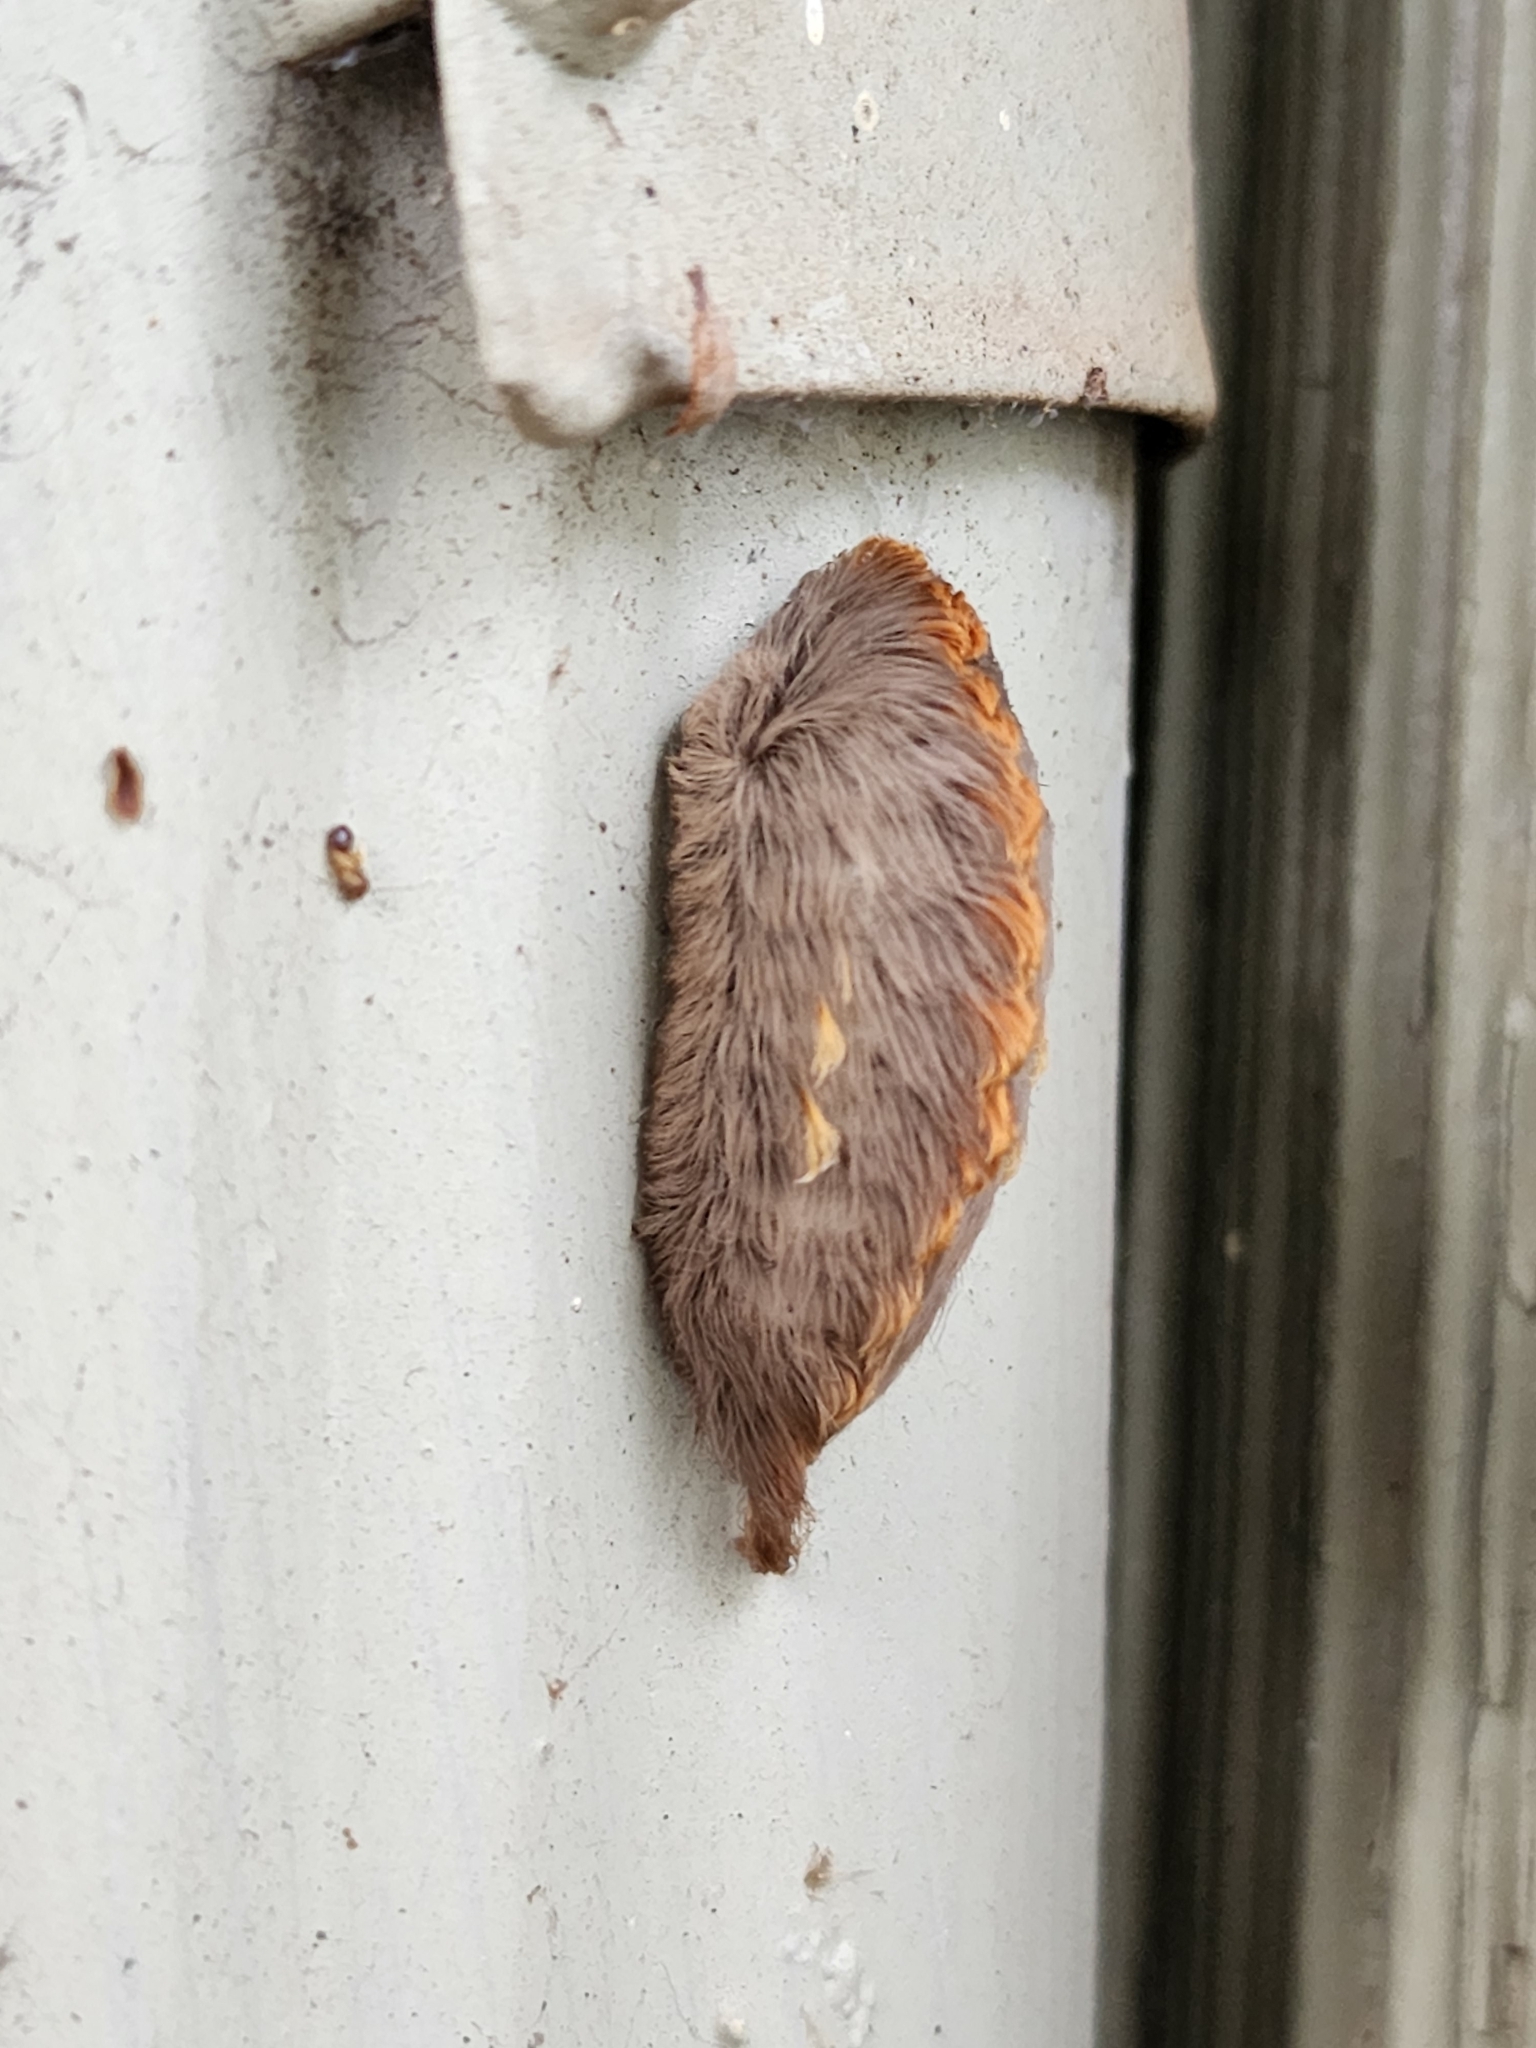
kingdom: Animalia
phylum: Arthropoda
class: Insecta
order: Lepidoptera
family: Megalopygidae
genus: Megalopyge
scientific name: Megalopyge opercularis
